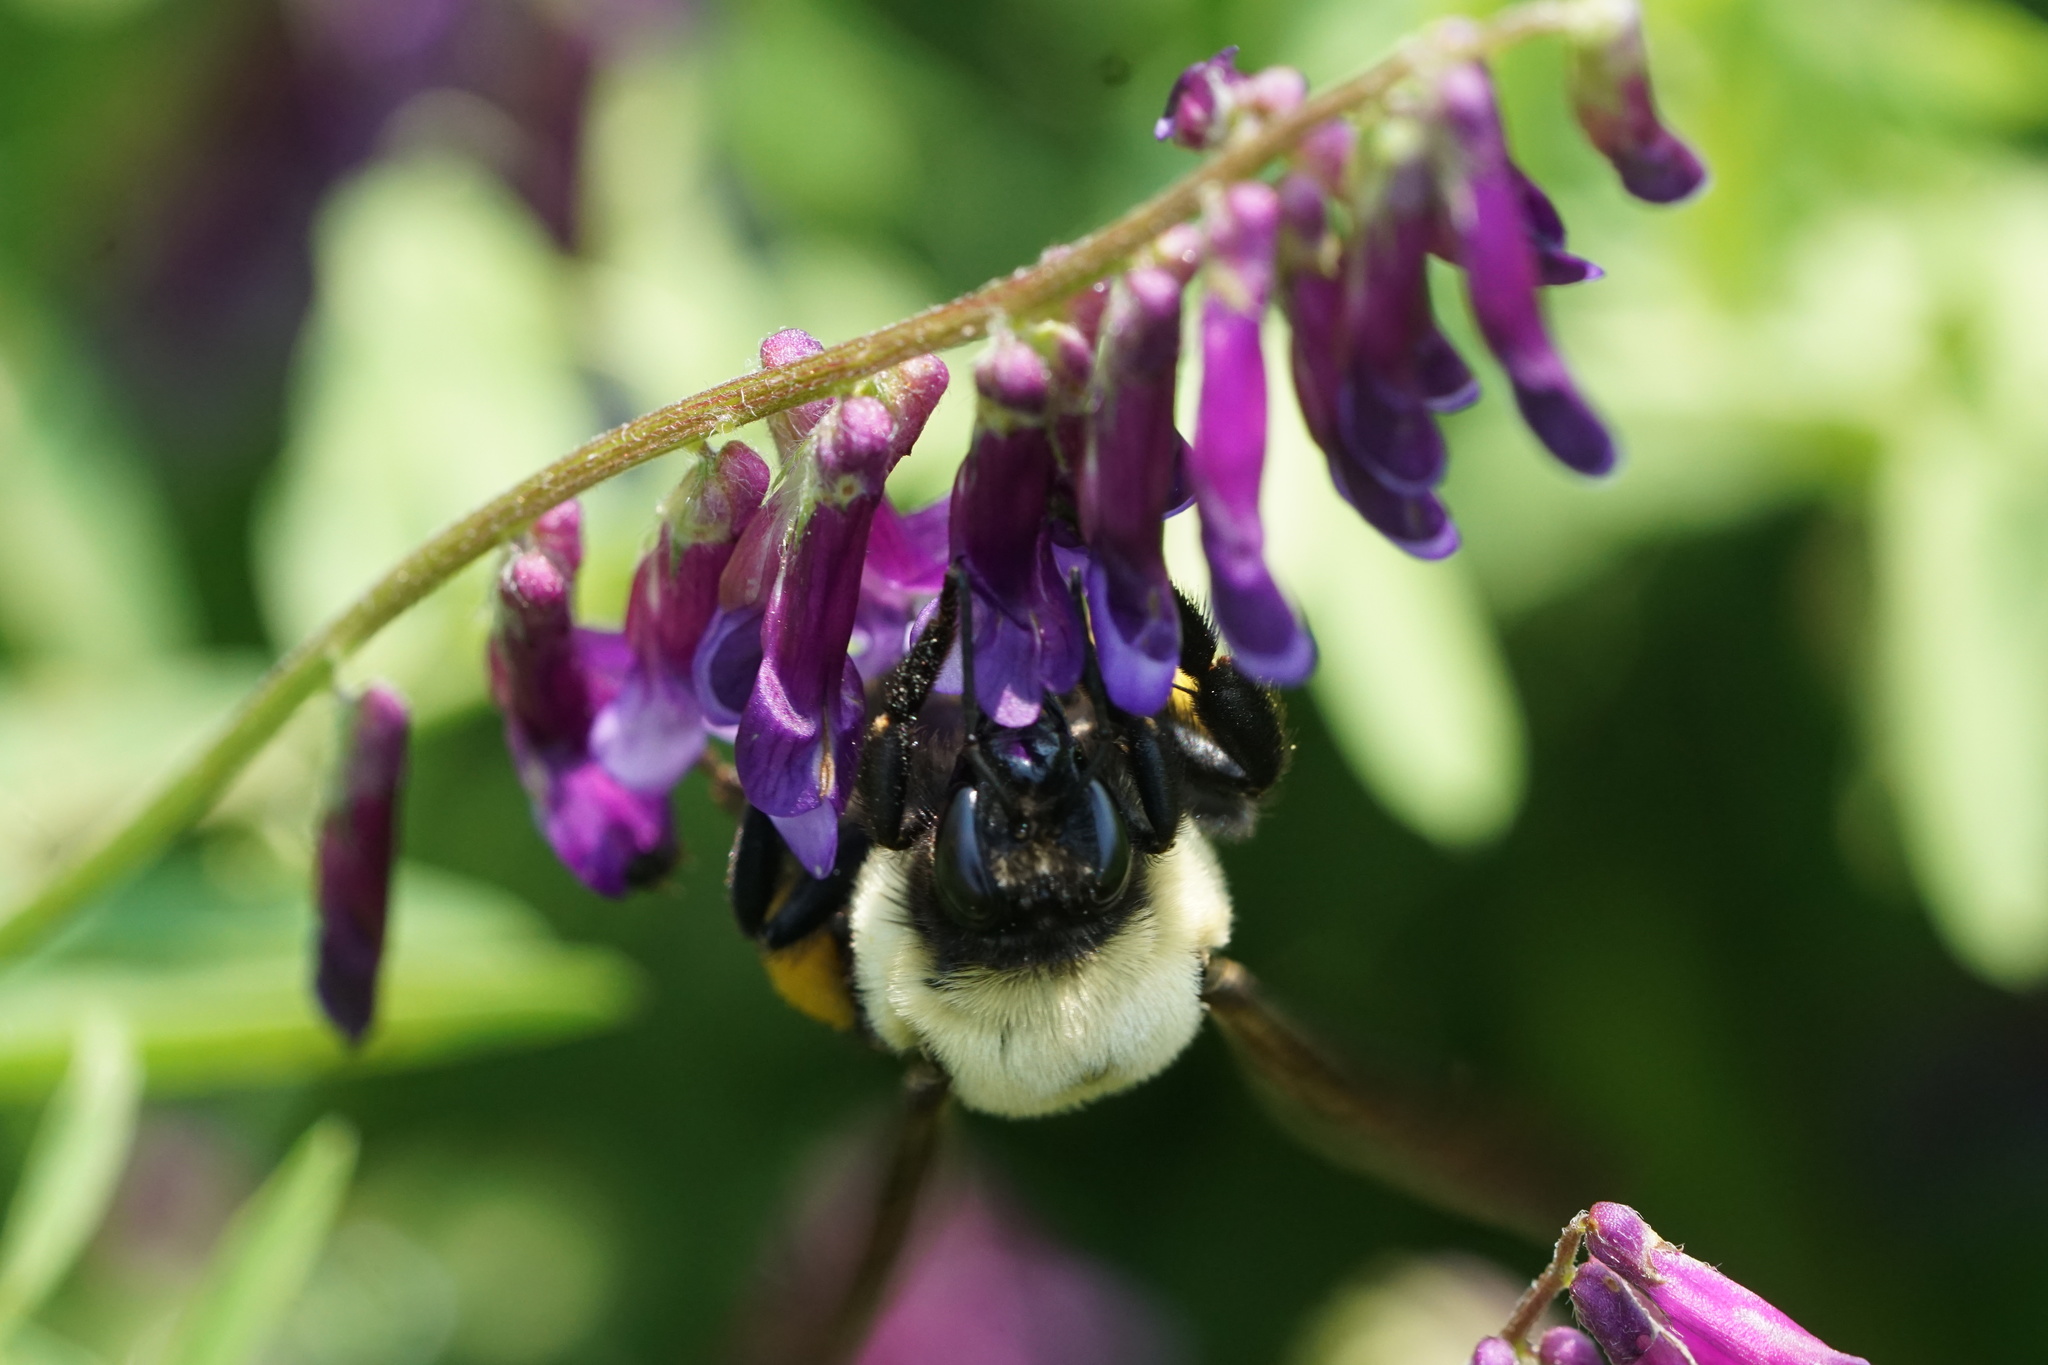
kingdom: Animalia
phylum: Arthropoda
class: Insecta
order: Hymenoptera
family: Apidae
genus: Bombus
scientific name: Bombus griseocollis
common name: Brown-belted bumble bee
